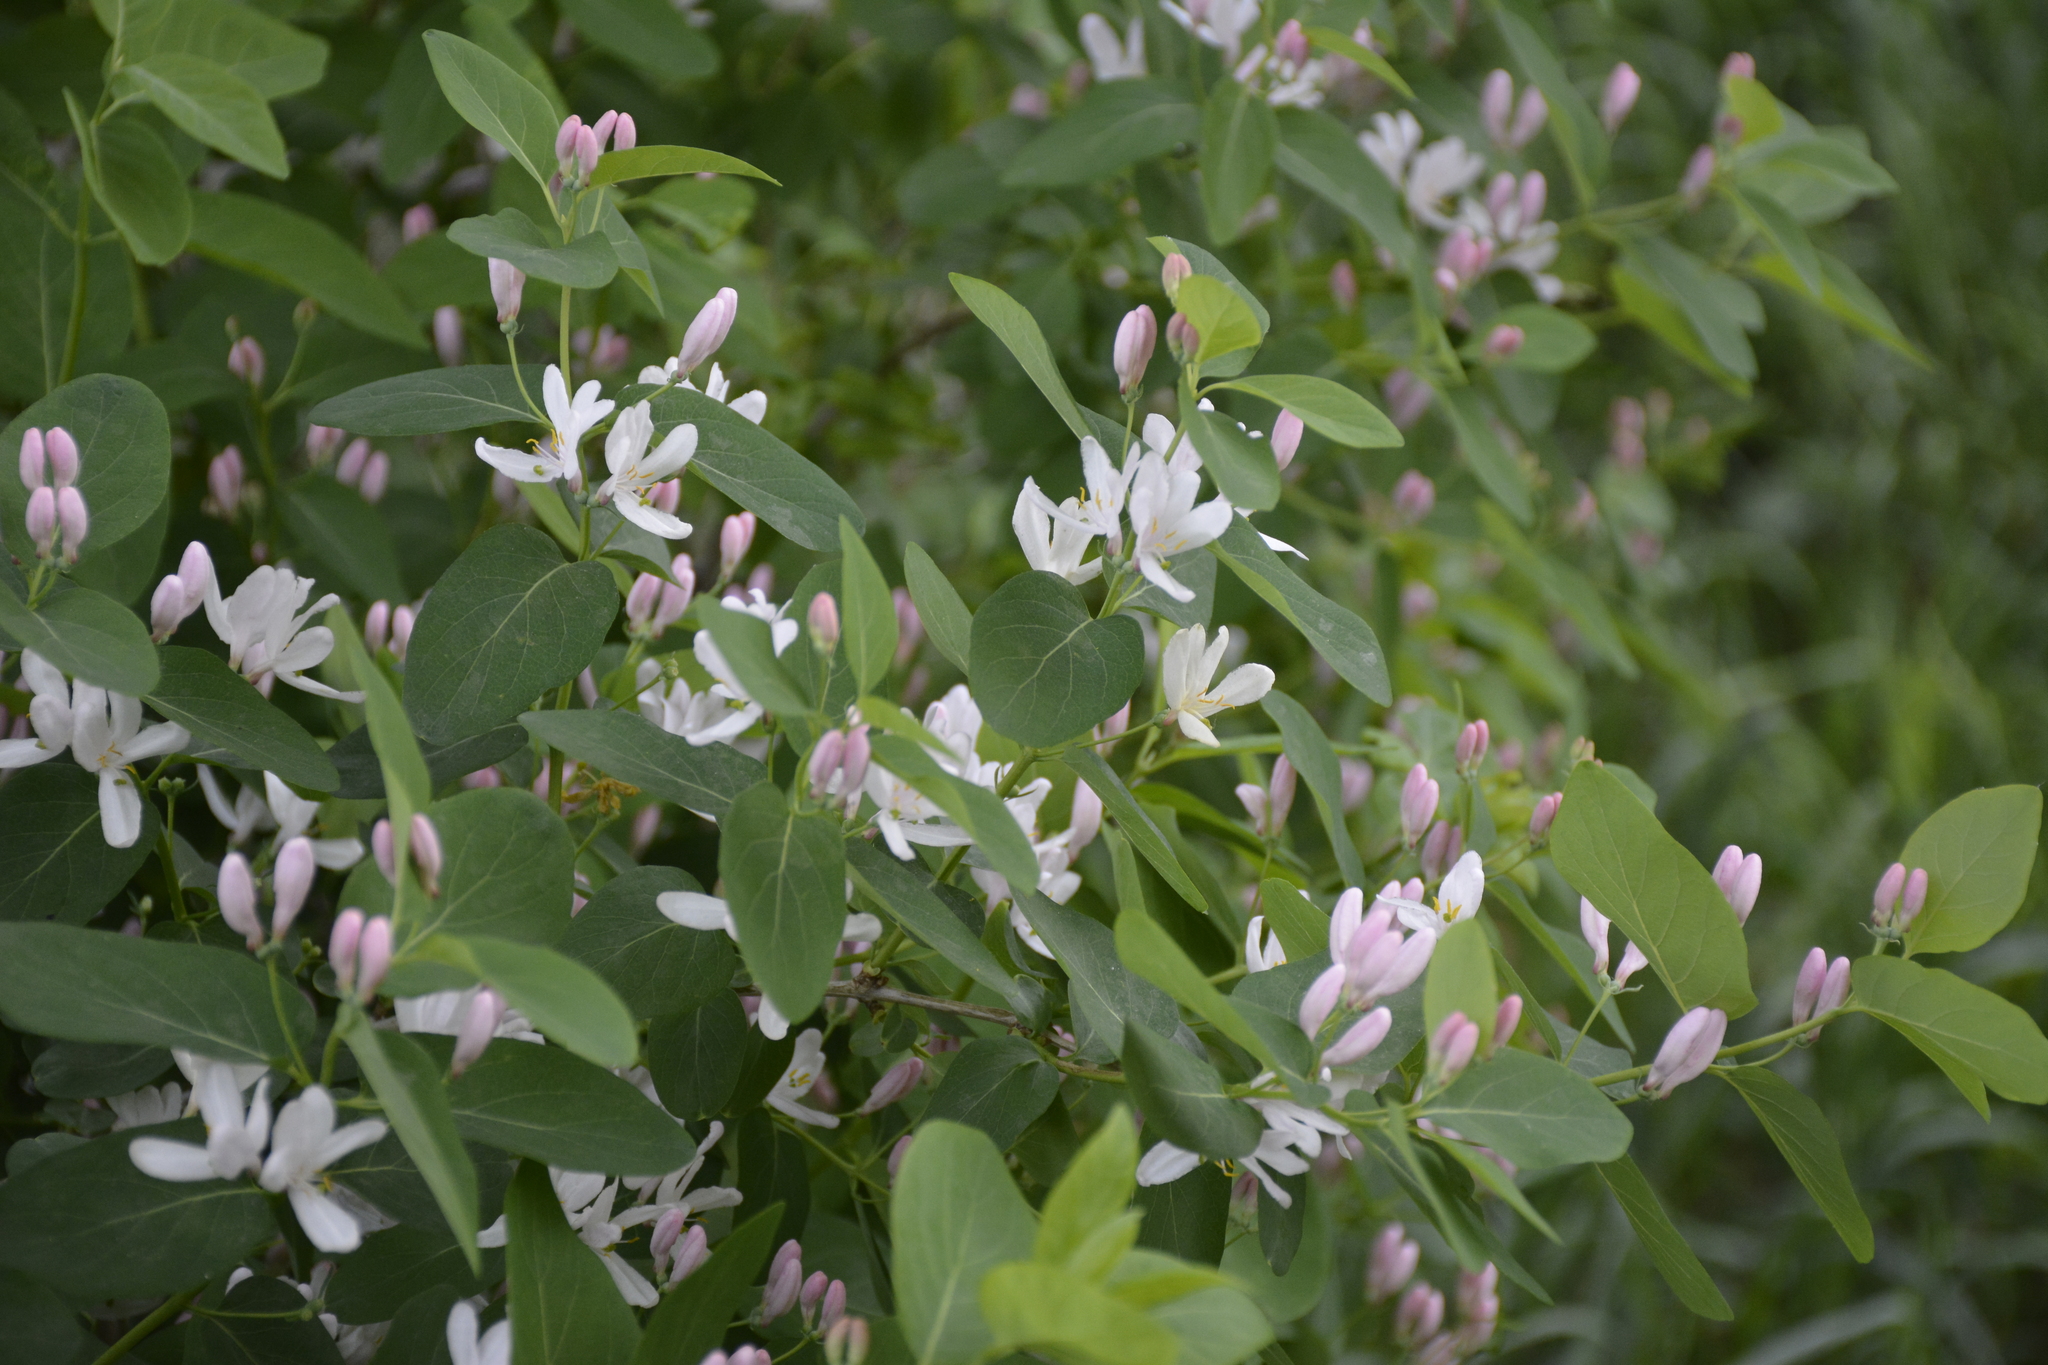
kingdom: Plantae
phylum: Tracheophyta
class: Magnoliopsida
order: Dipsacales
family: Caprifoliaceae
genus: Lonicera
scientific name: Lonicera tatarica
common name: Tatarian honeysuckle
